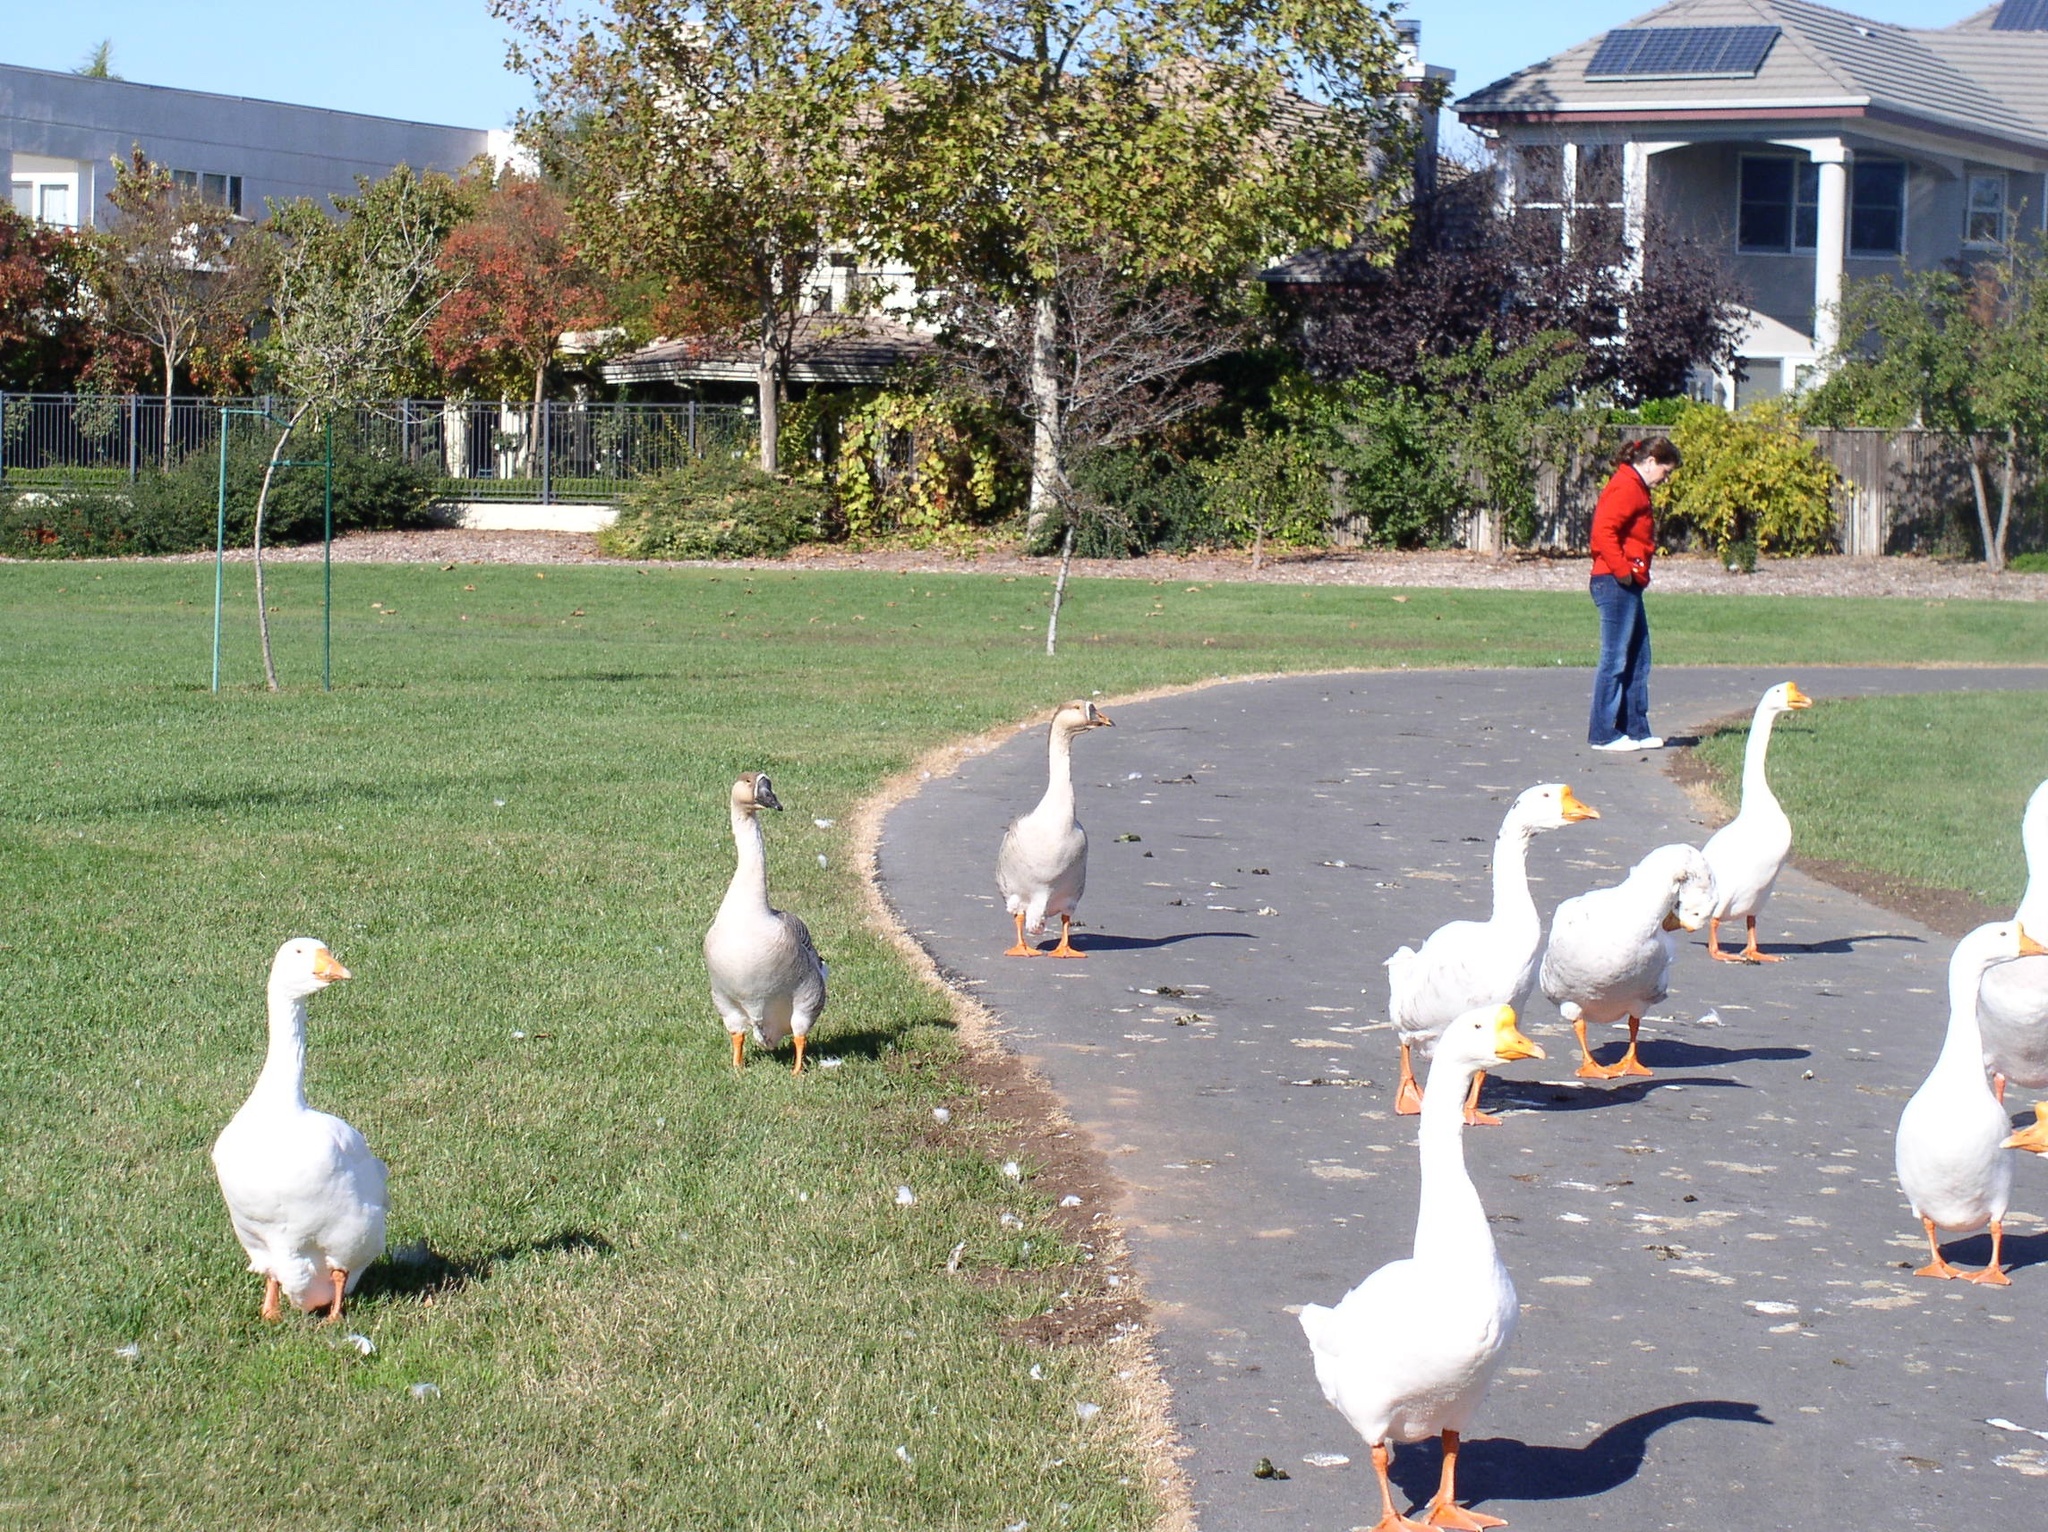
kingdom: Animalia
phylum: Chordata
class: Aves
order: Anseriformes
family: Anatidae
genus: Anser
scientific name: Anser anser
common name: Greylag goose
